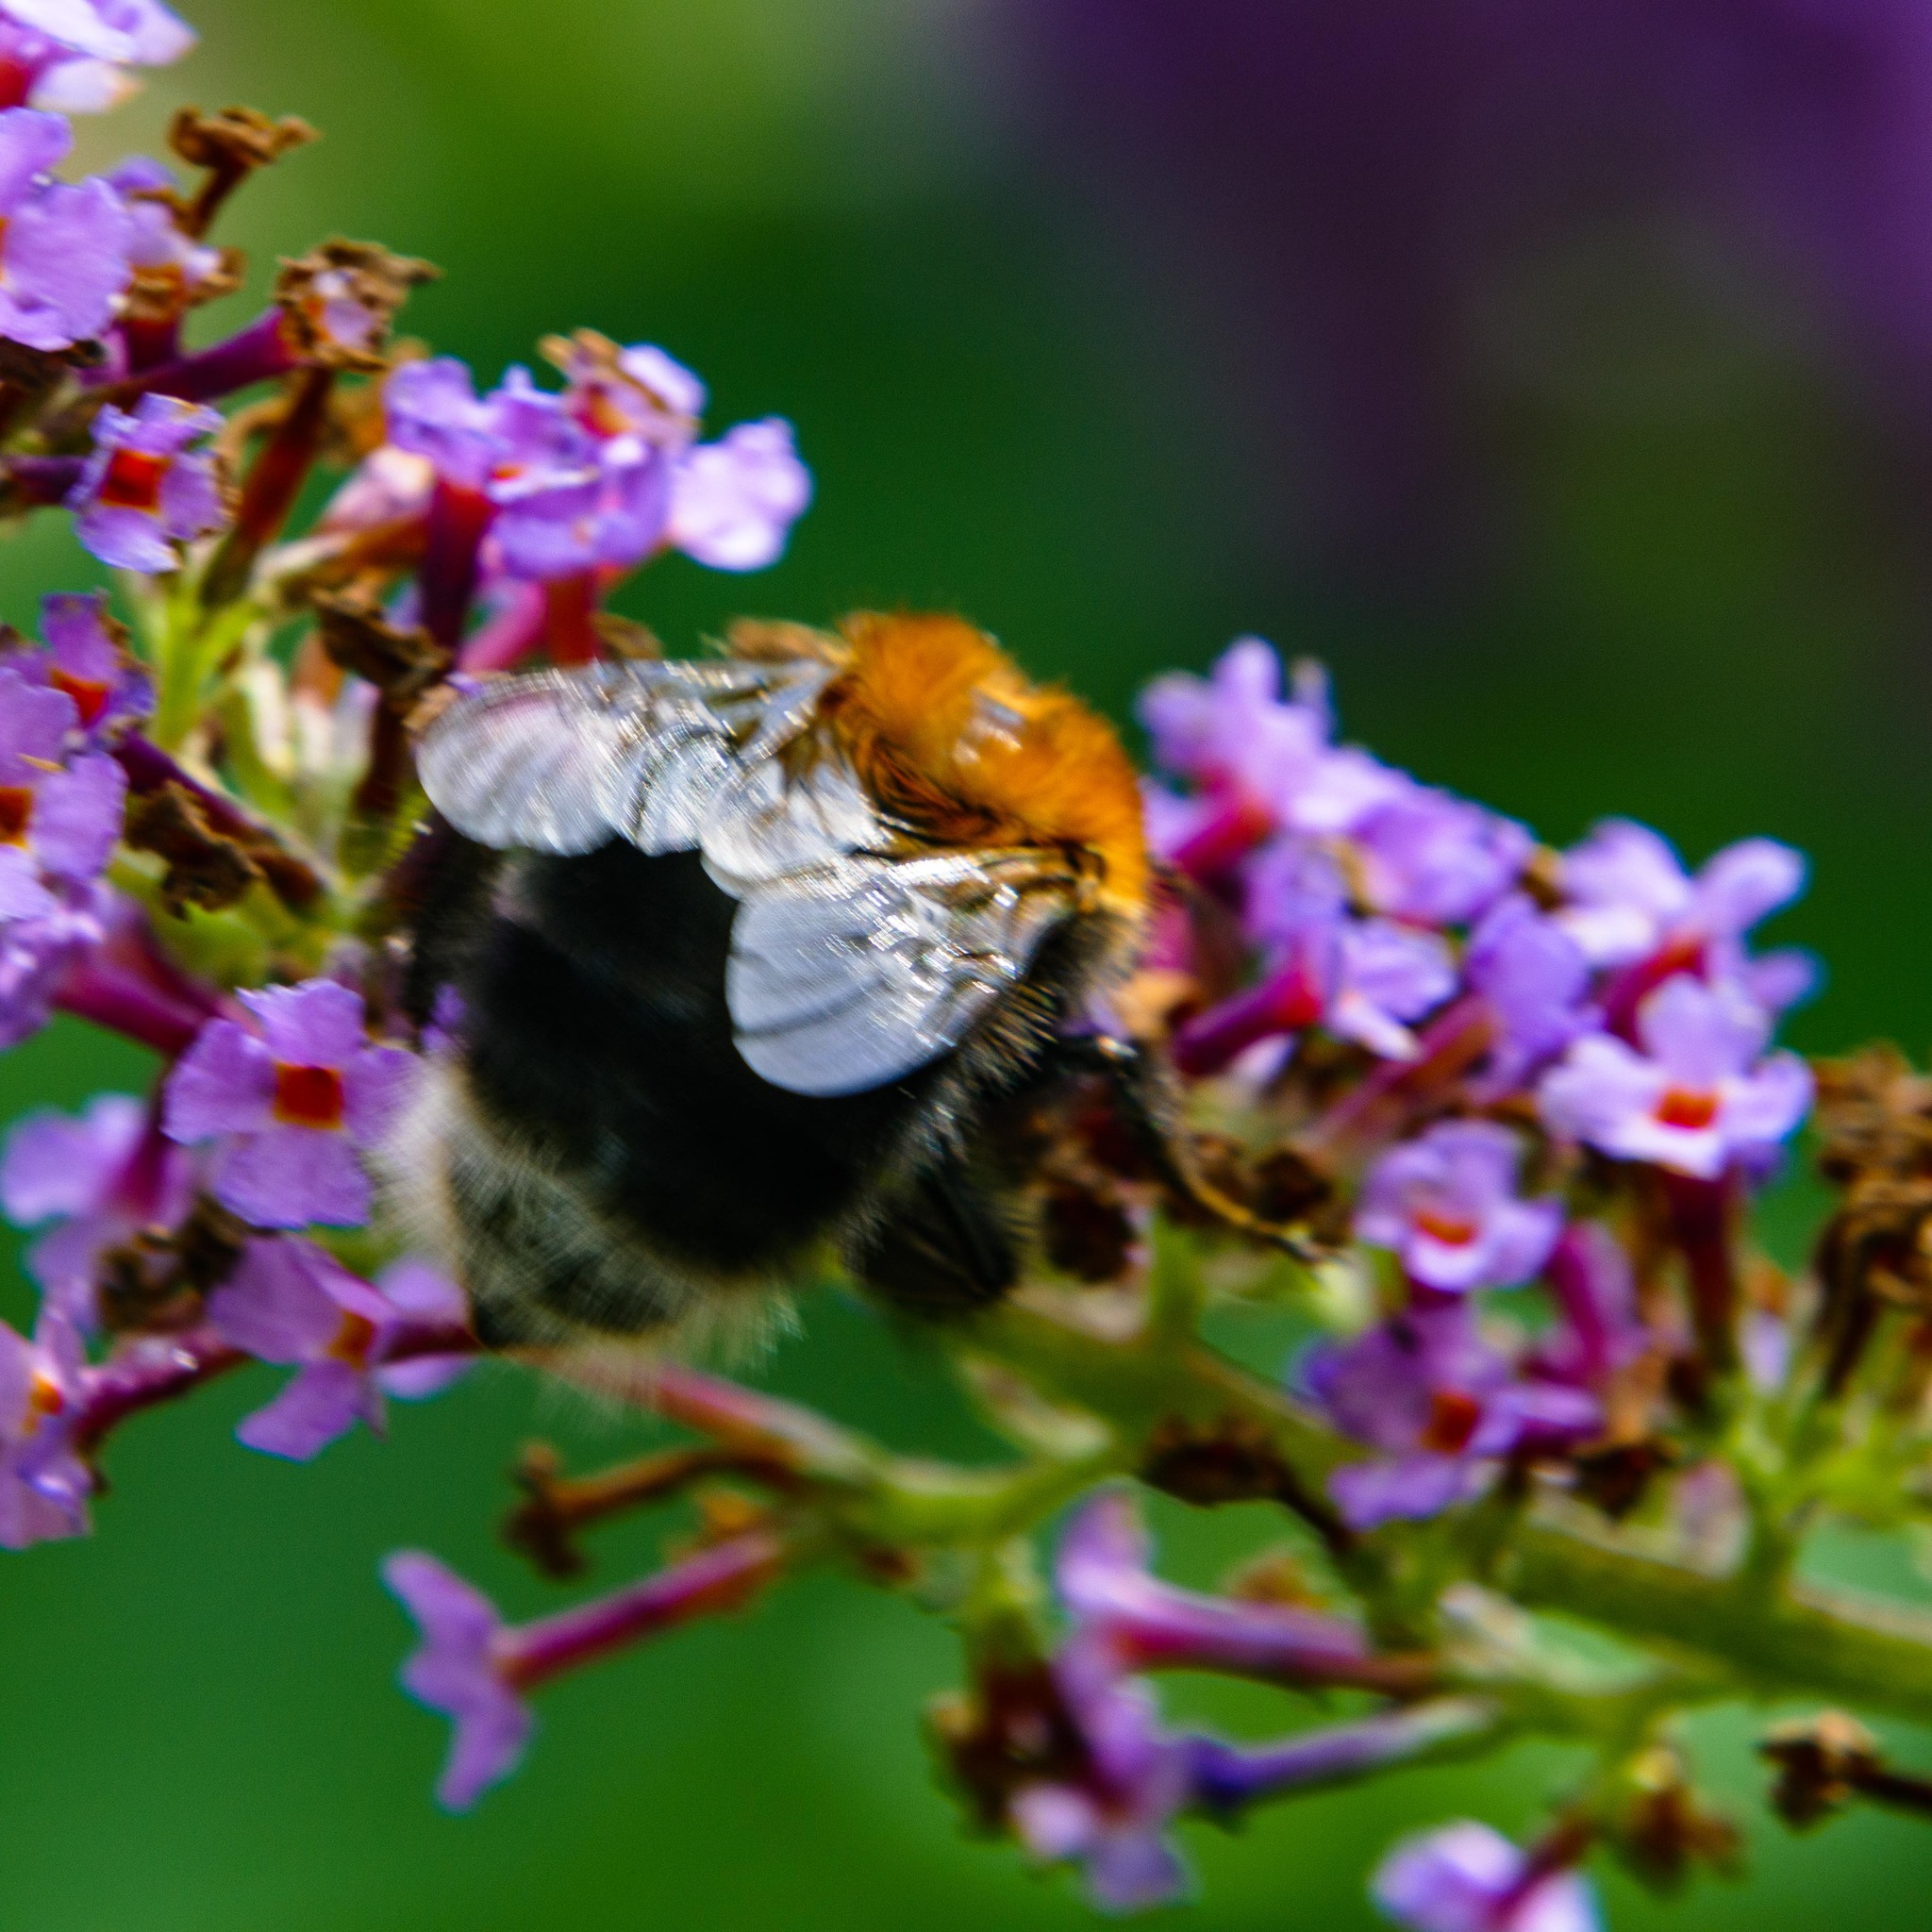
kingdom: Animalia
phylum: Arthropoda
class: Insecta
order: Hymenoptera
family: Apidae
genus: Bombus
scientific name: Bombus hypnorum
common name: New garden bumblebee
